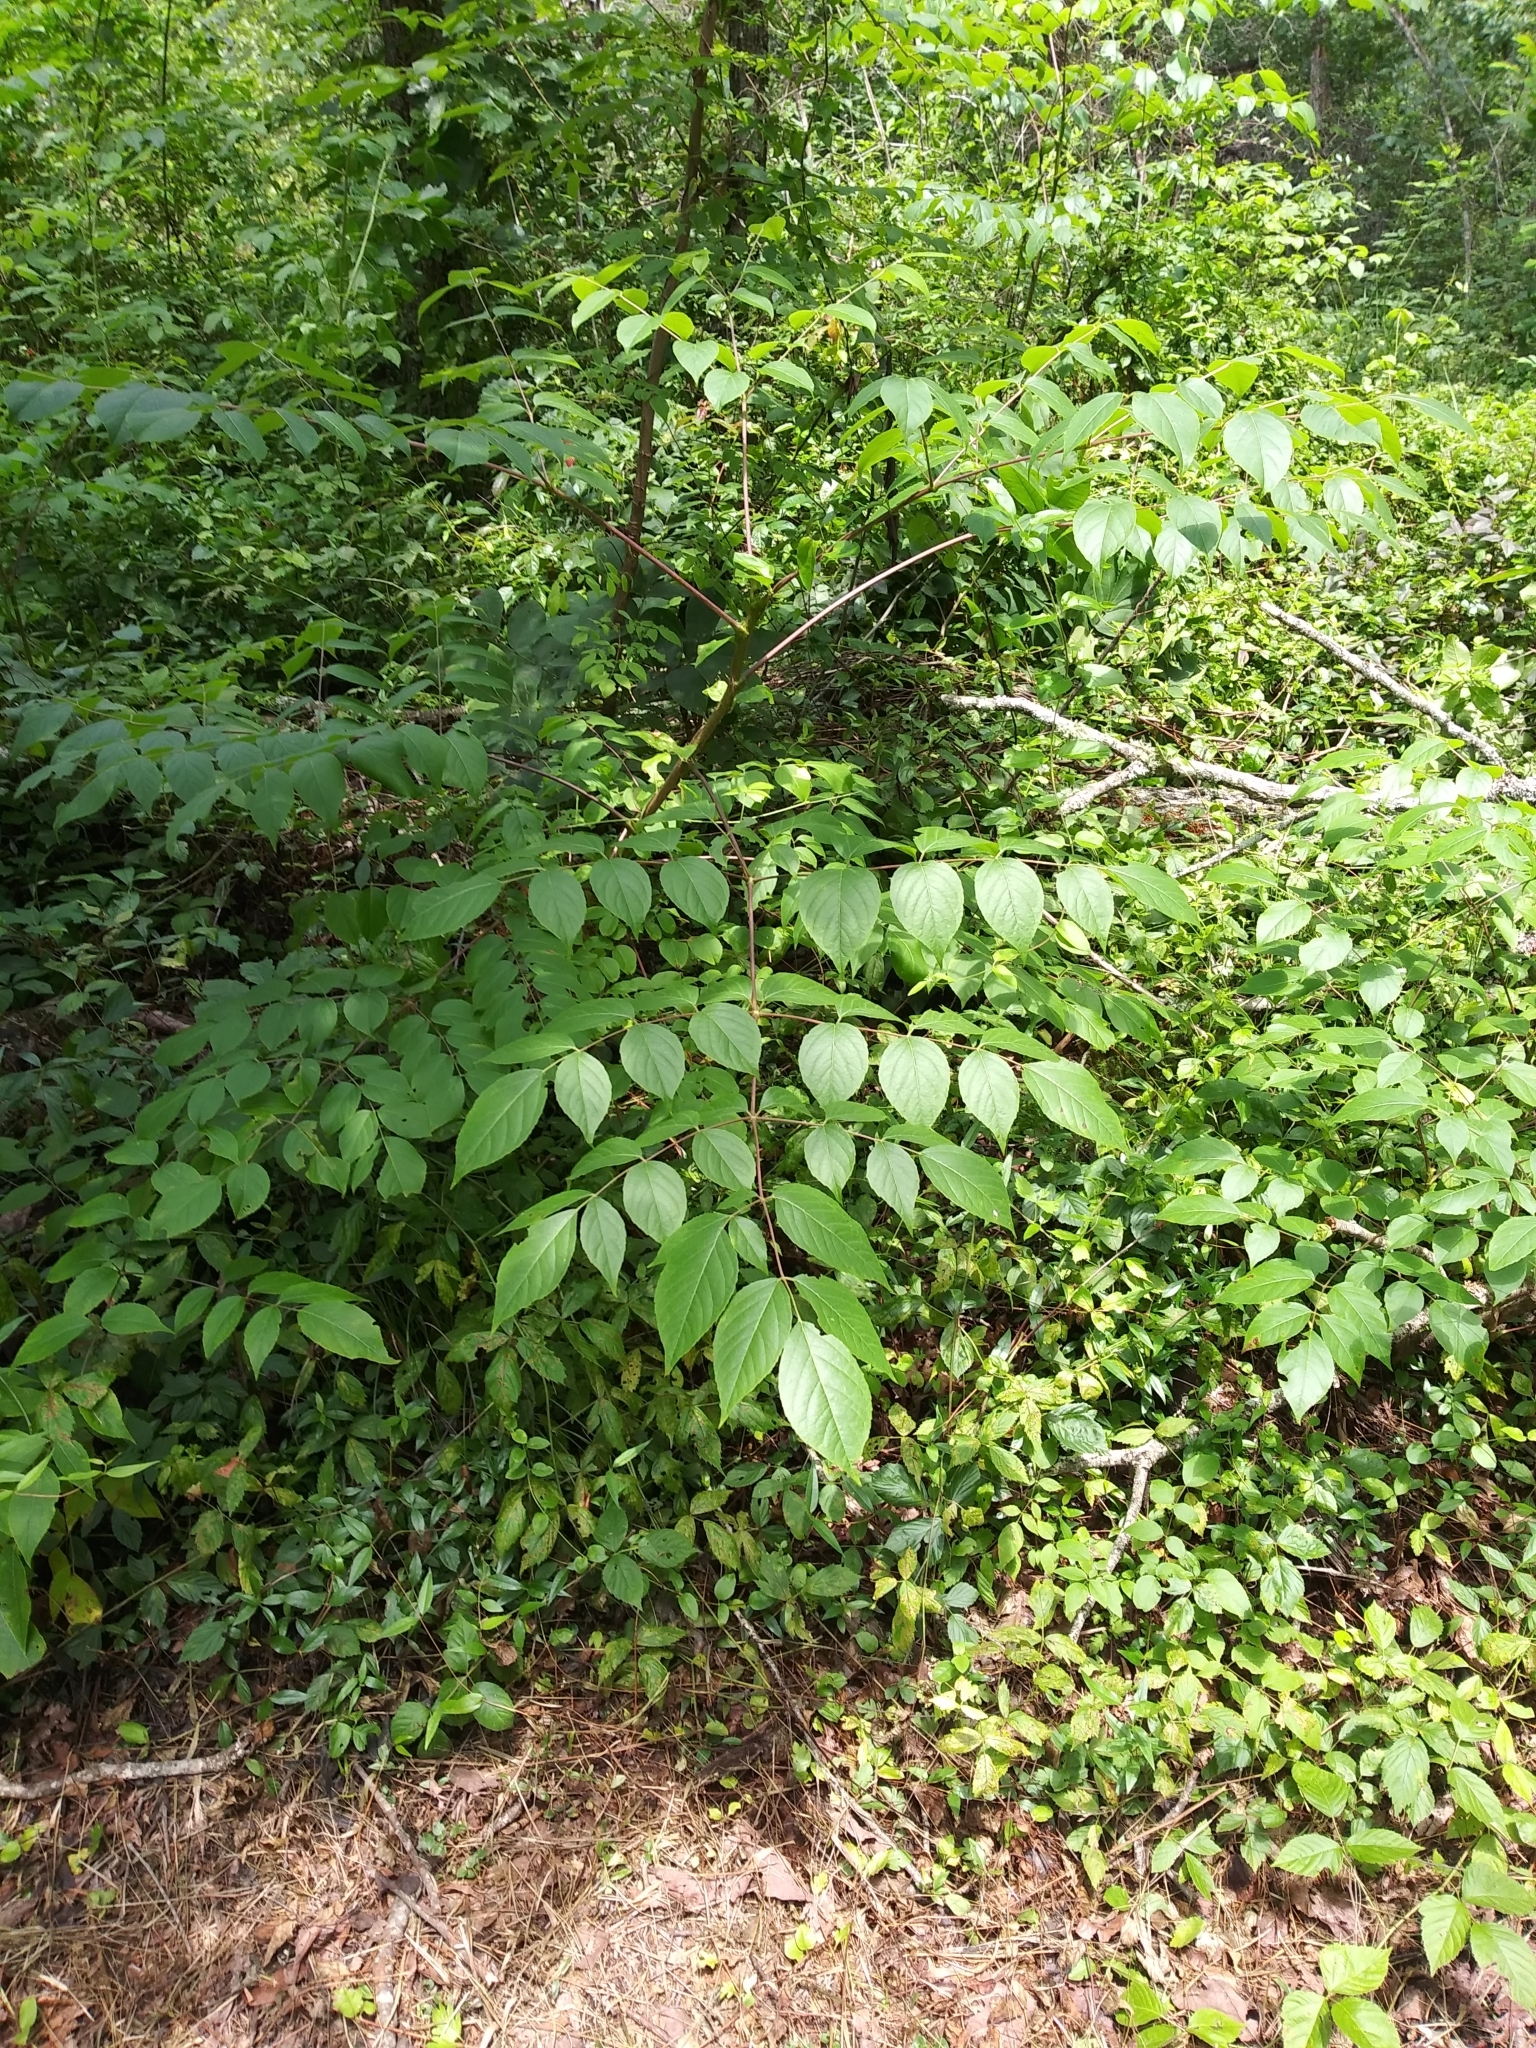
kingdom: Plantae
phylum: Tracheophyta
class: Magnoliopsida
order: Apiales
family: Araliaceae
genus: Aralia
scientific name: Aralia spinosa
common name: Hercules'-club
